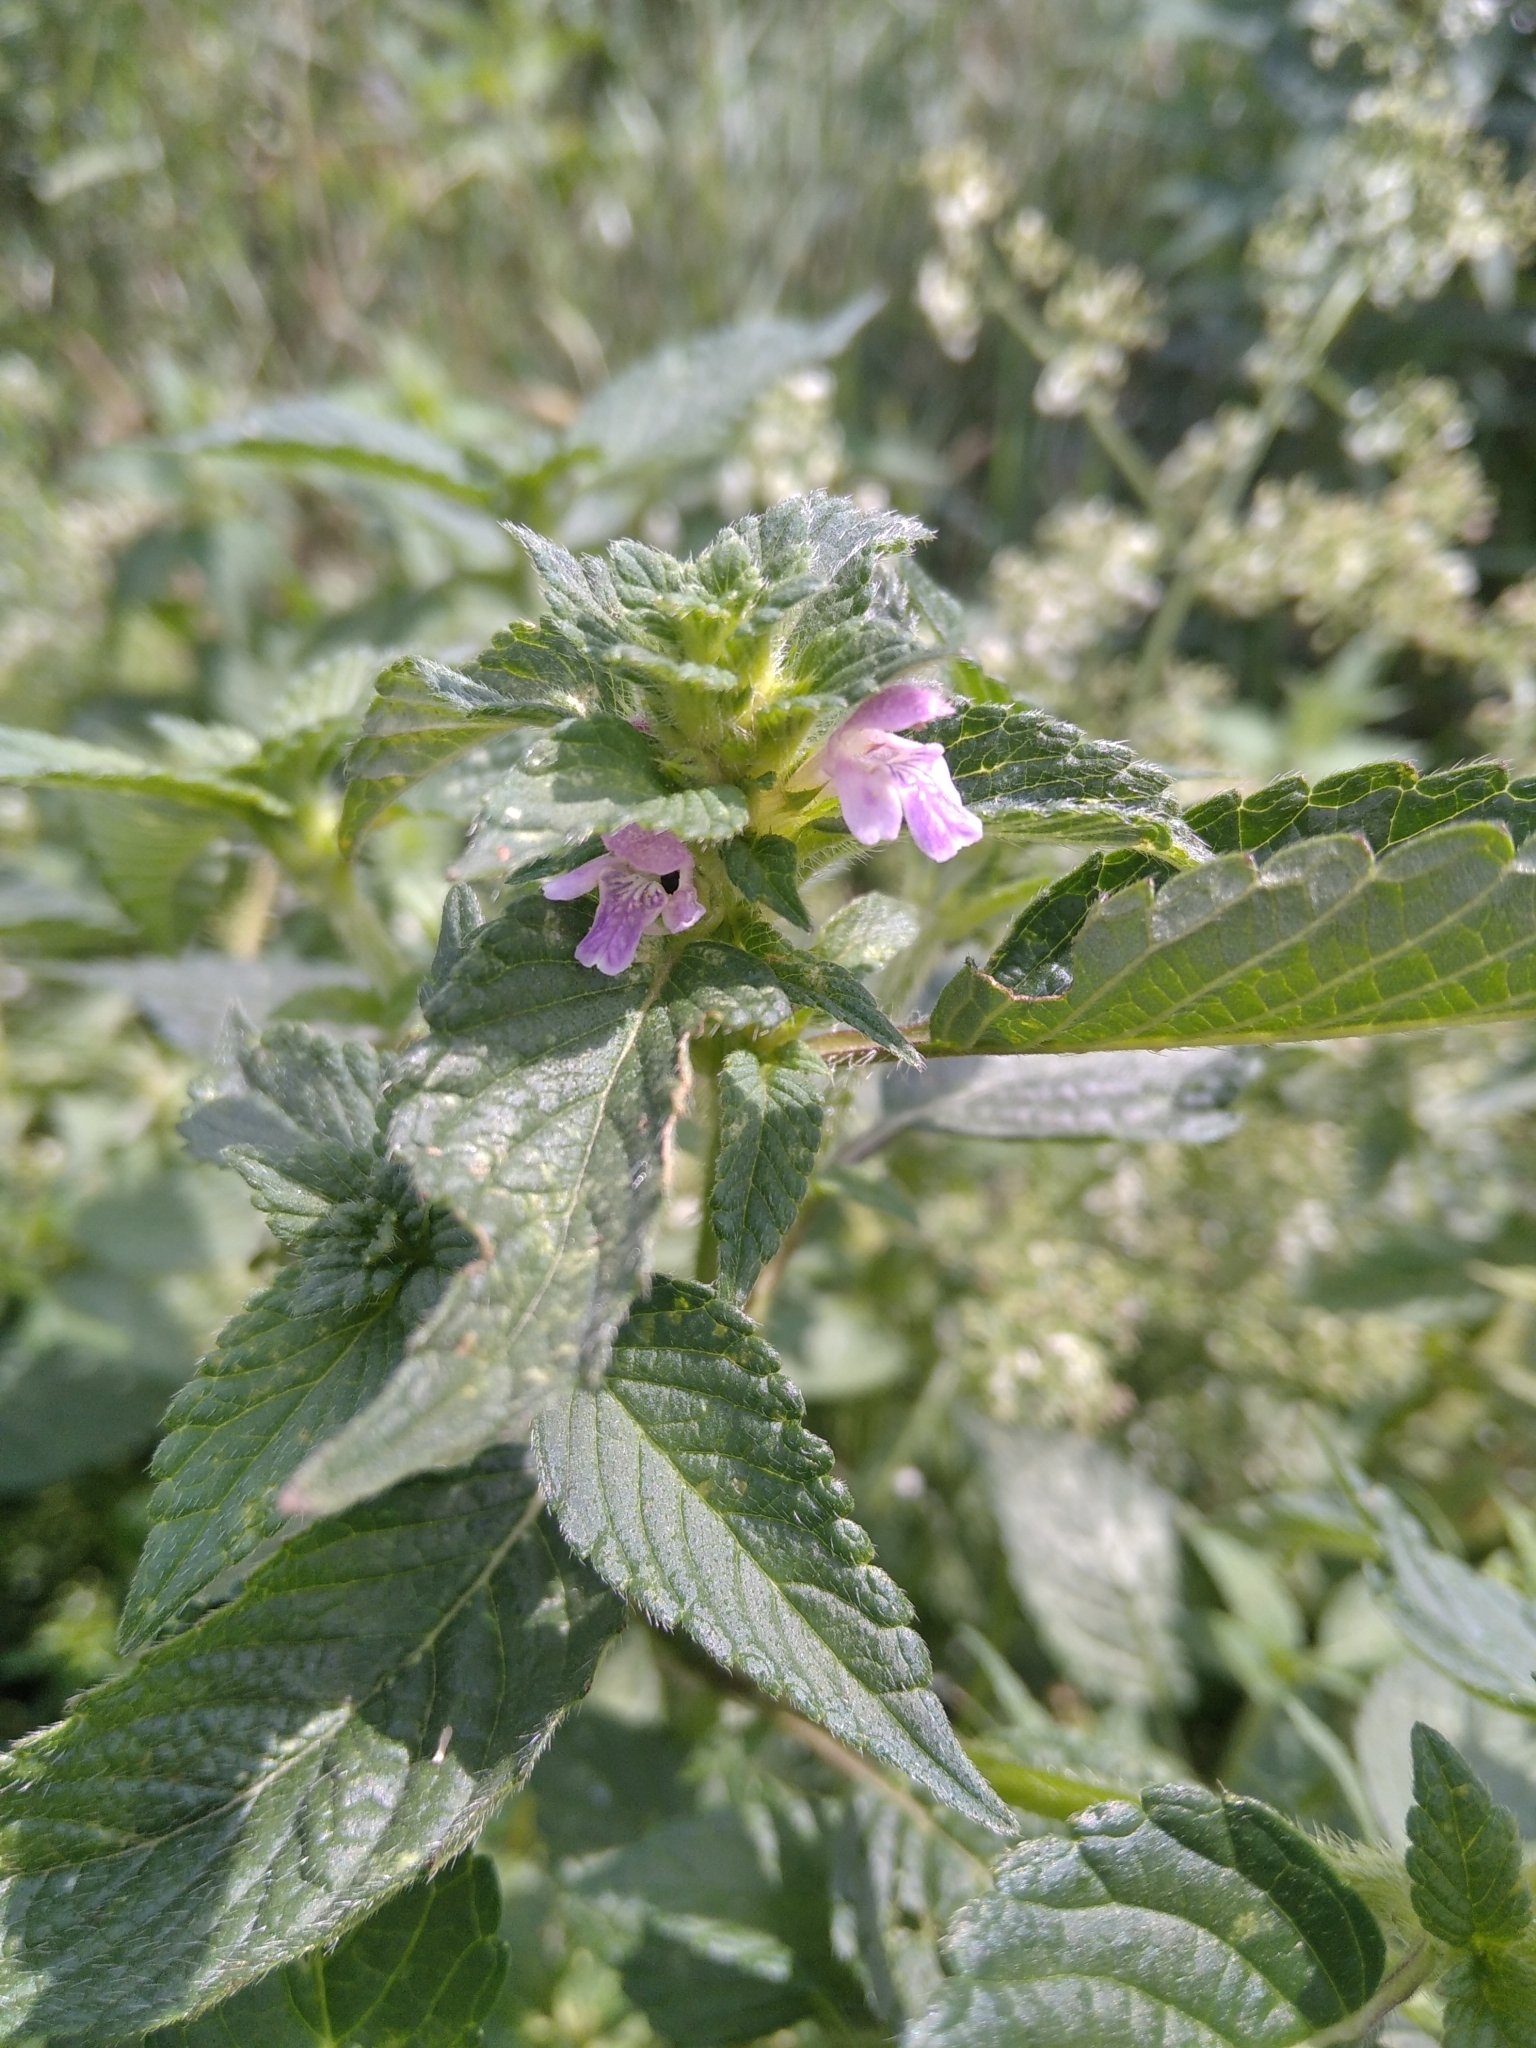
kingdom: Plantae
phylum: Tracheophyta
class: Magnoliopsida
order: Lamiales
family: Lamiaceae
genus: Galeopsis
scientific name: Galeopsis bifida
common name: Bifid hemp-nettle
